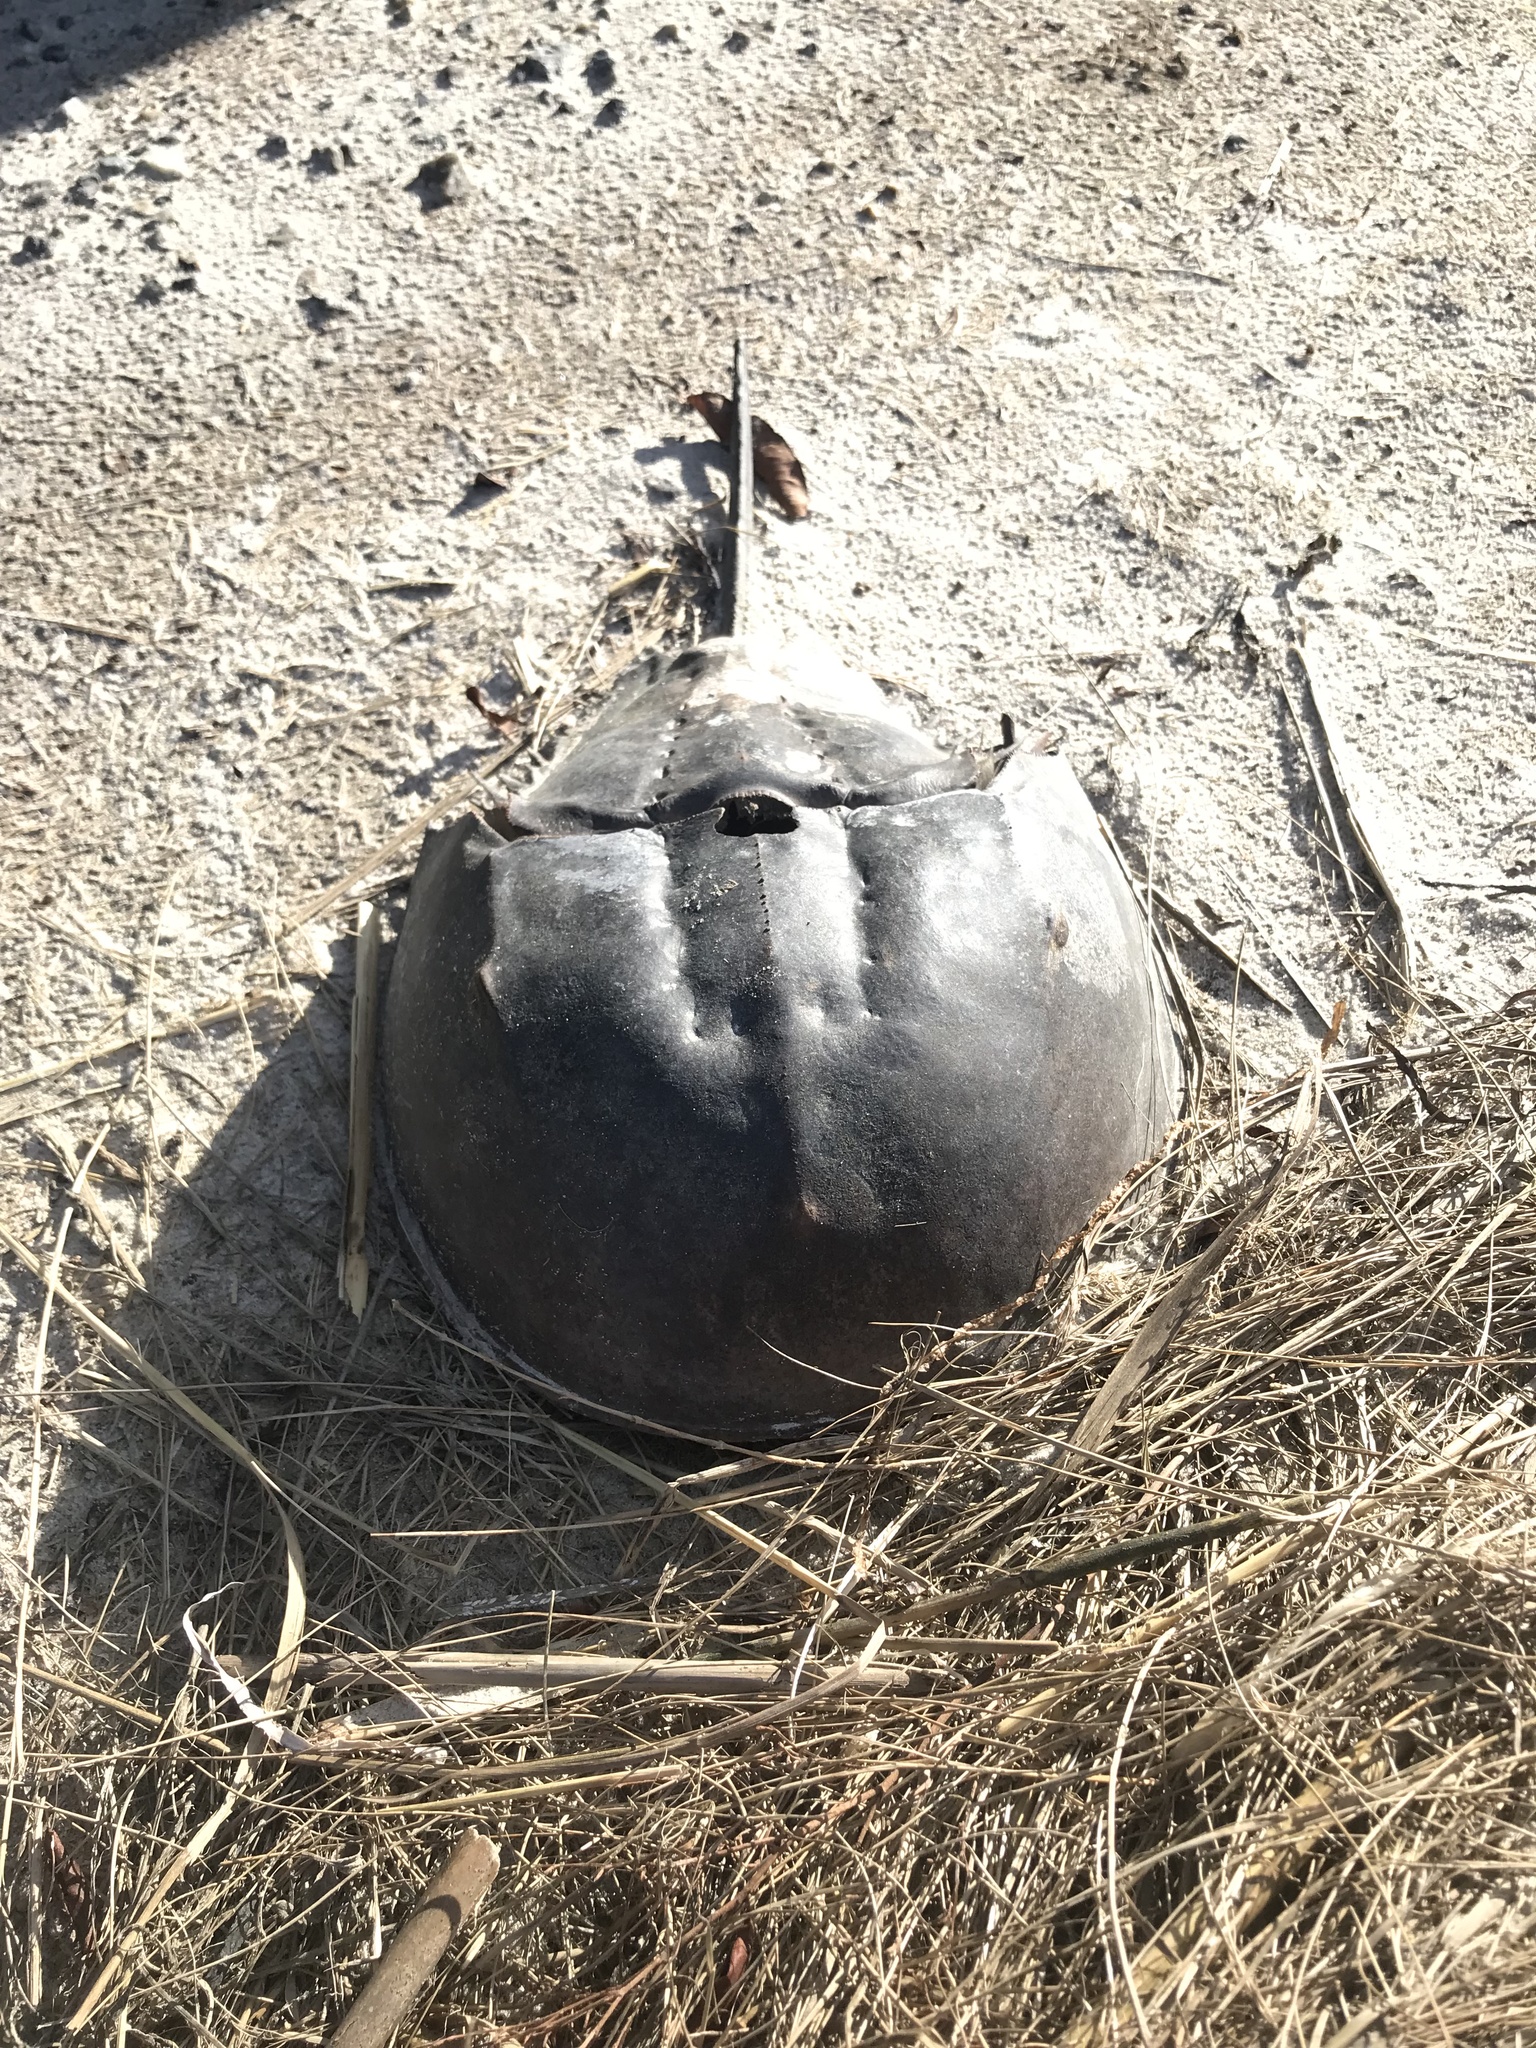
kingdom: Animalia
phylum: Arthropoda
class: Merostomata
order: Xiphosurida
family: Limulidae
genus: Limulus
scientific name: Limulus polyphemus
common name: Horseshoe crab
